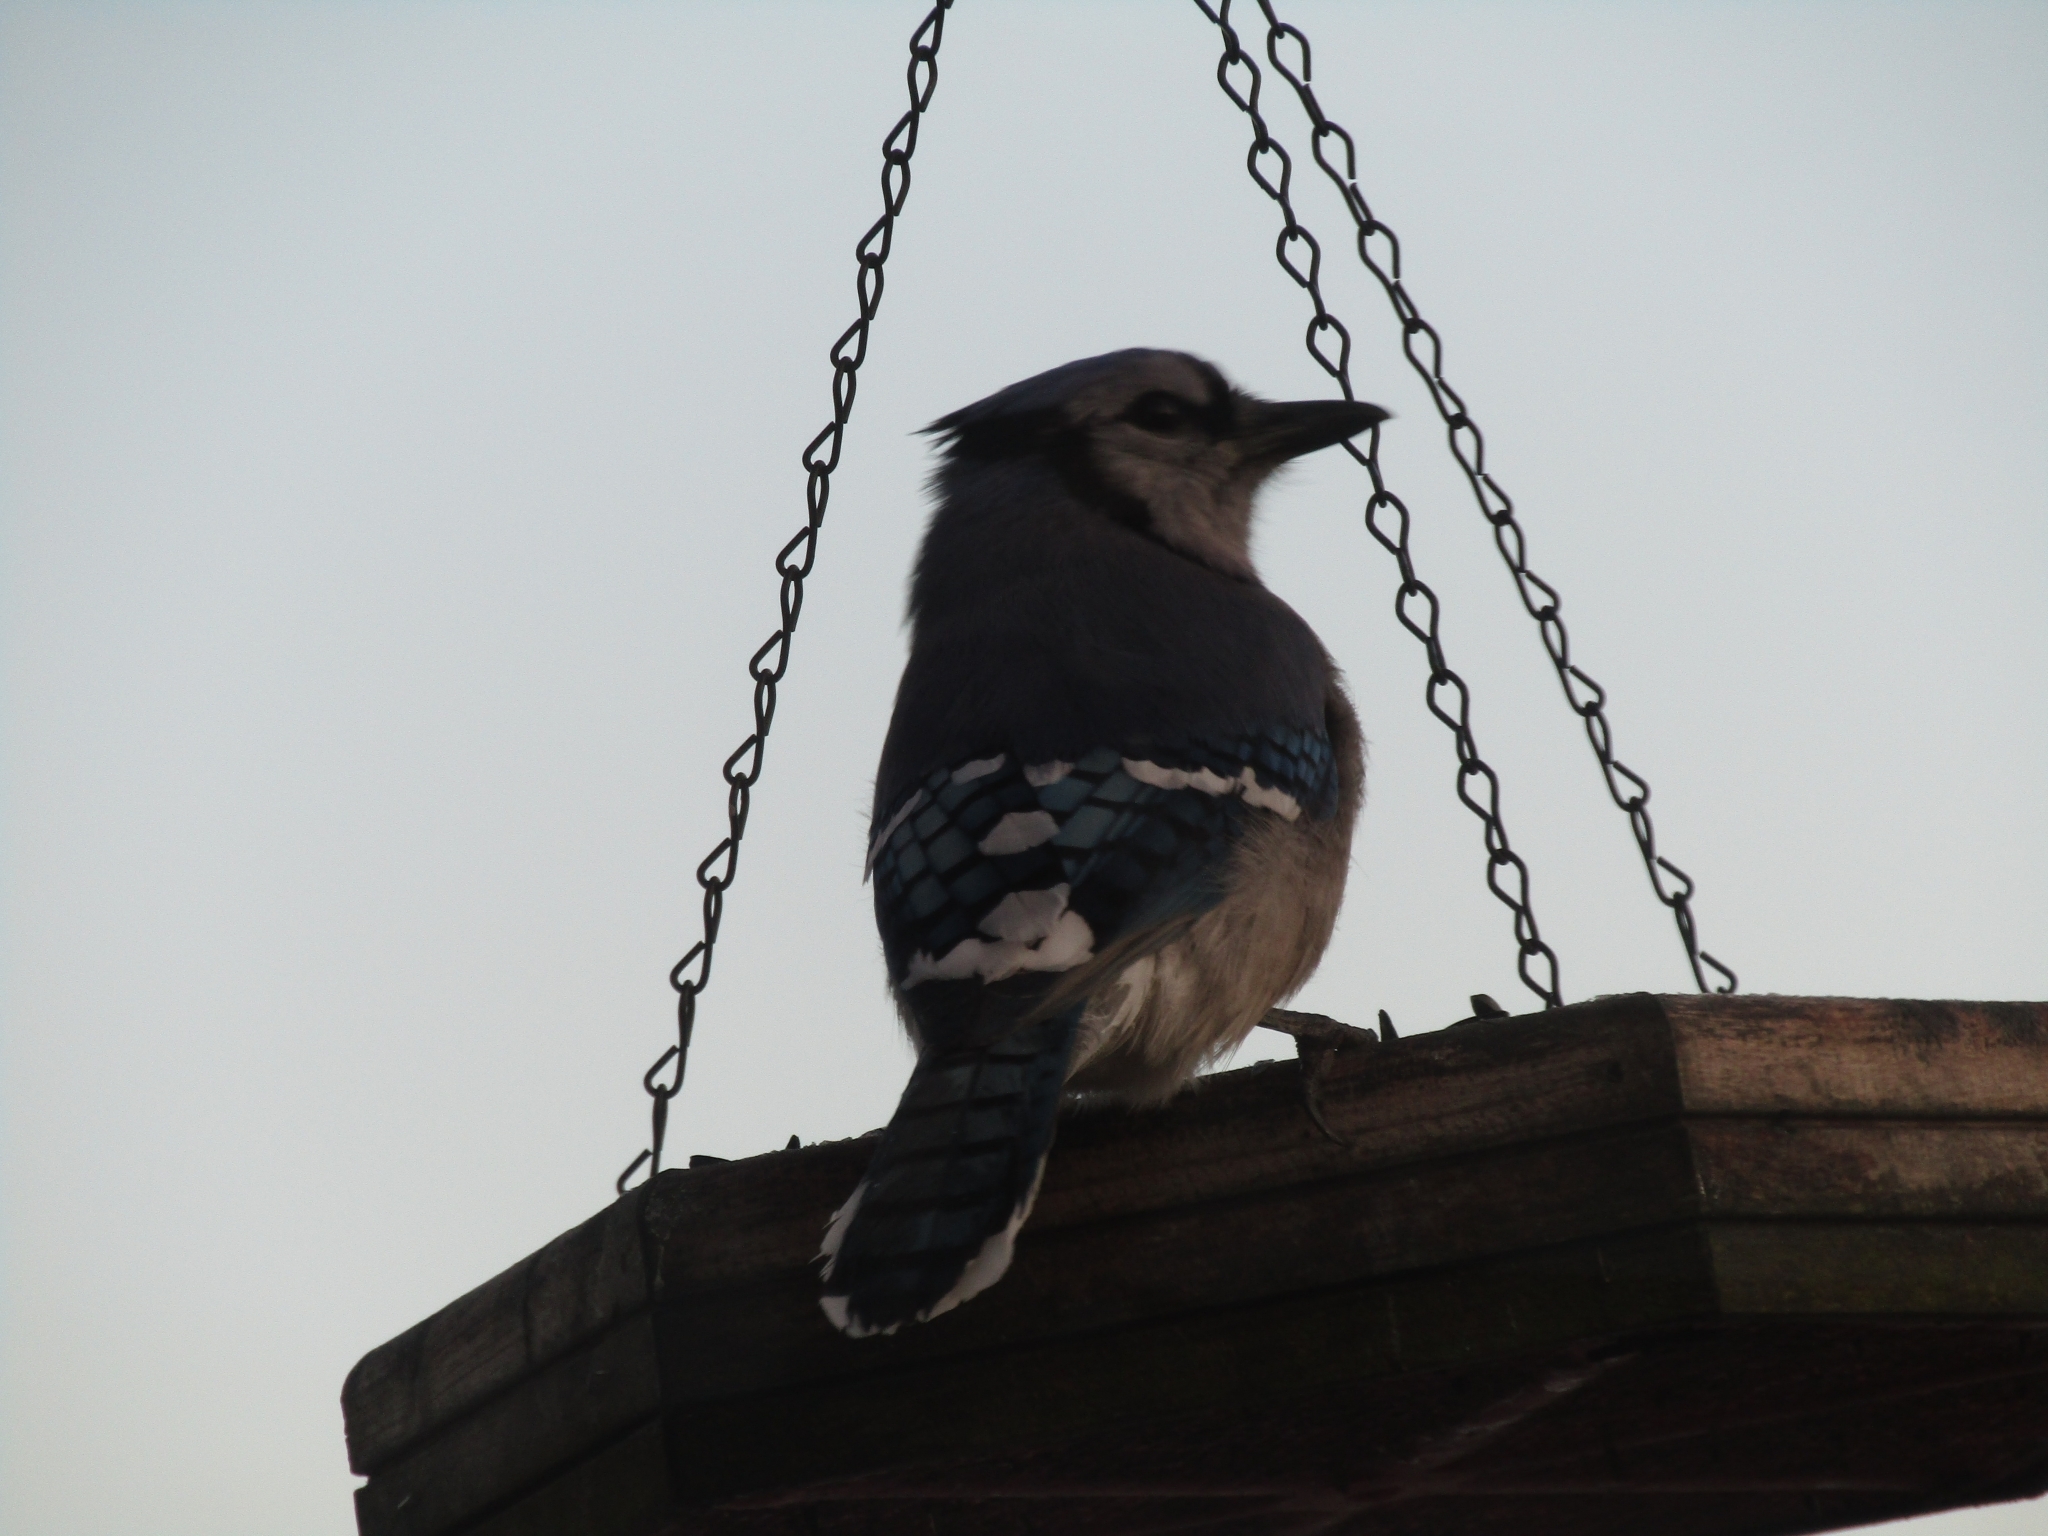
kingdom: Animalia
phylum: Chordata
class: Aves
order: Passeriformes
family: Corvidae
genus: Cyanocitta
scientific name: Cyanocitta cristata
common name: Blue jay
